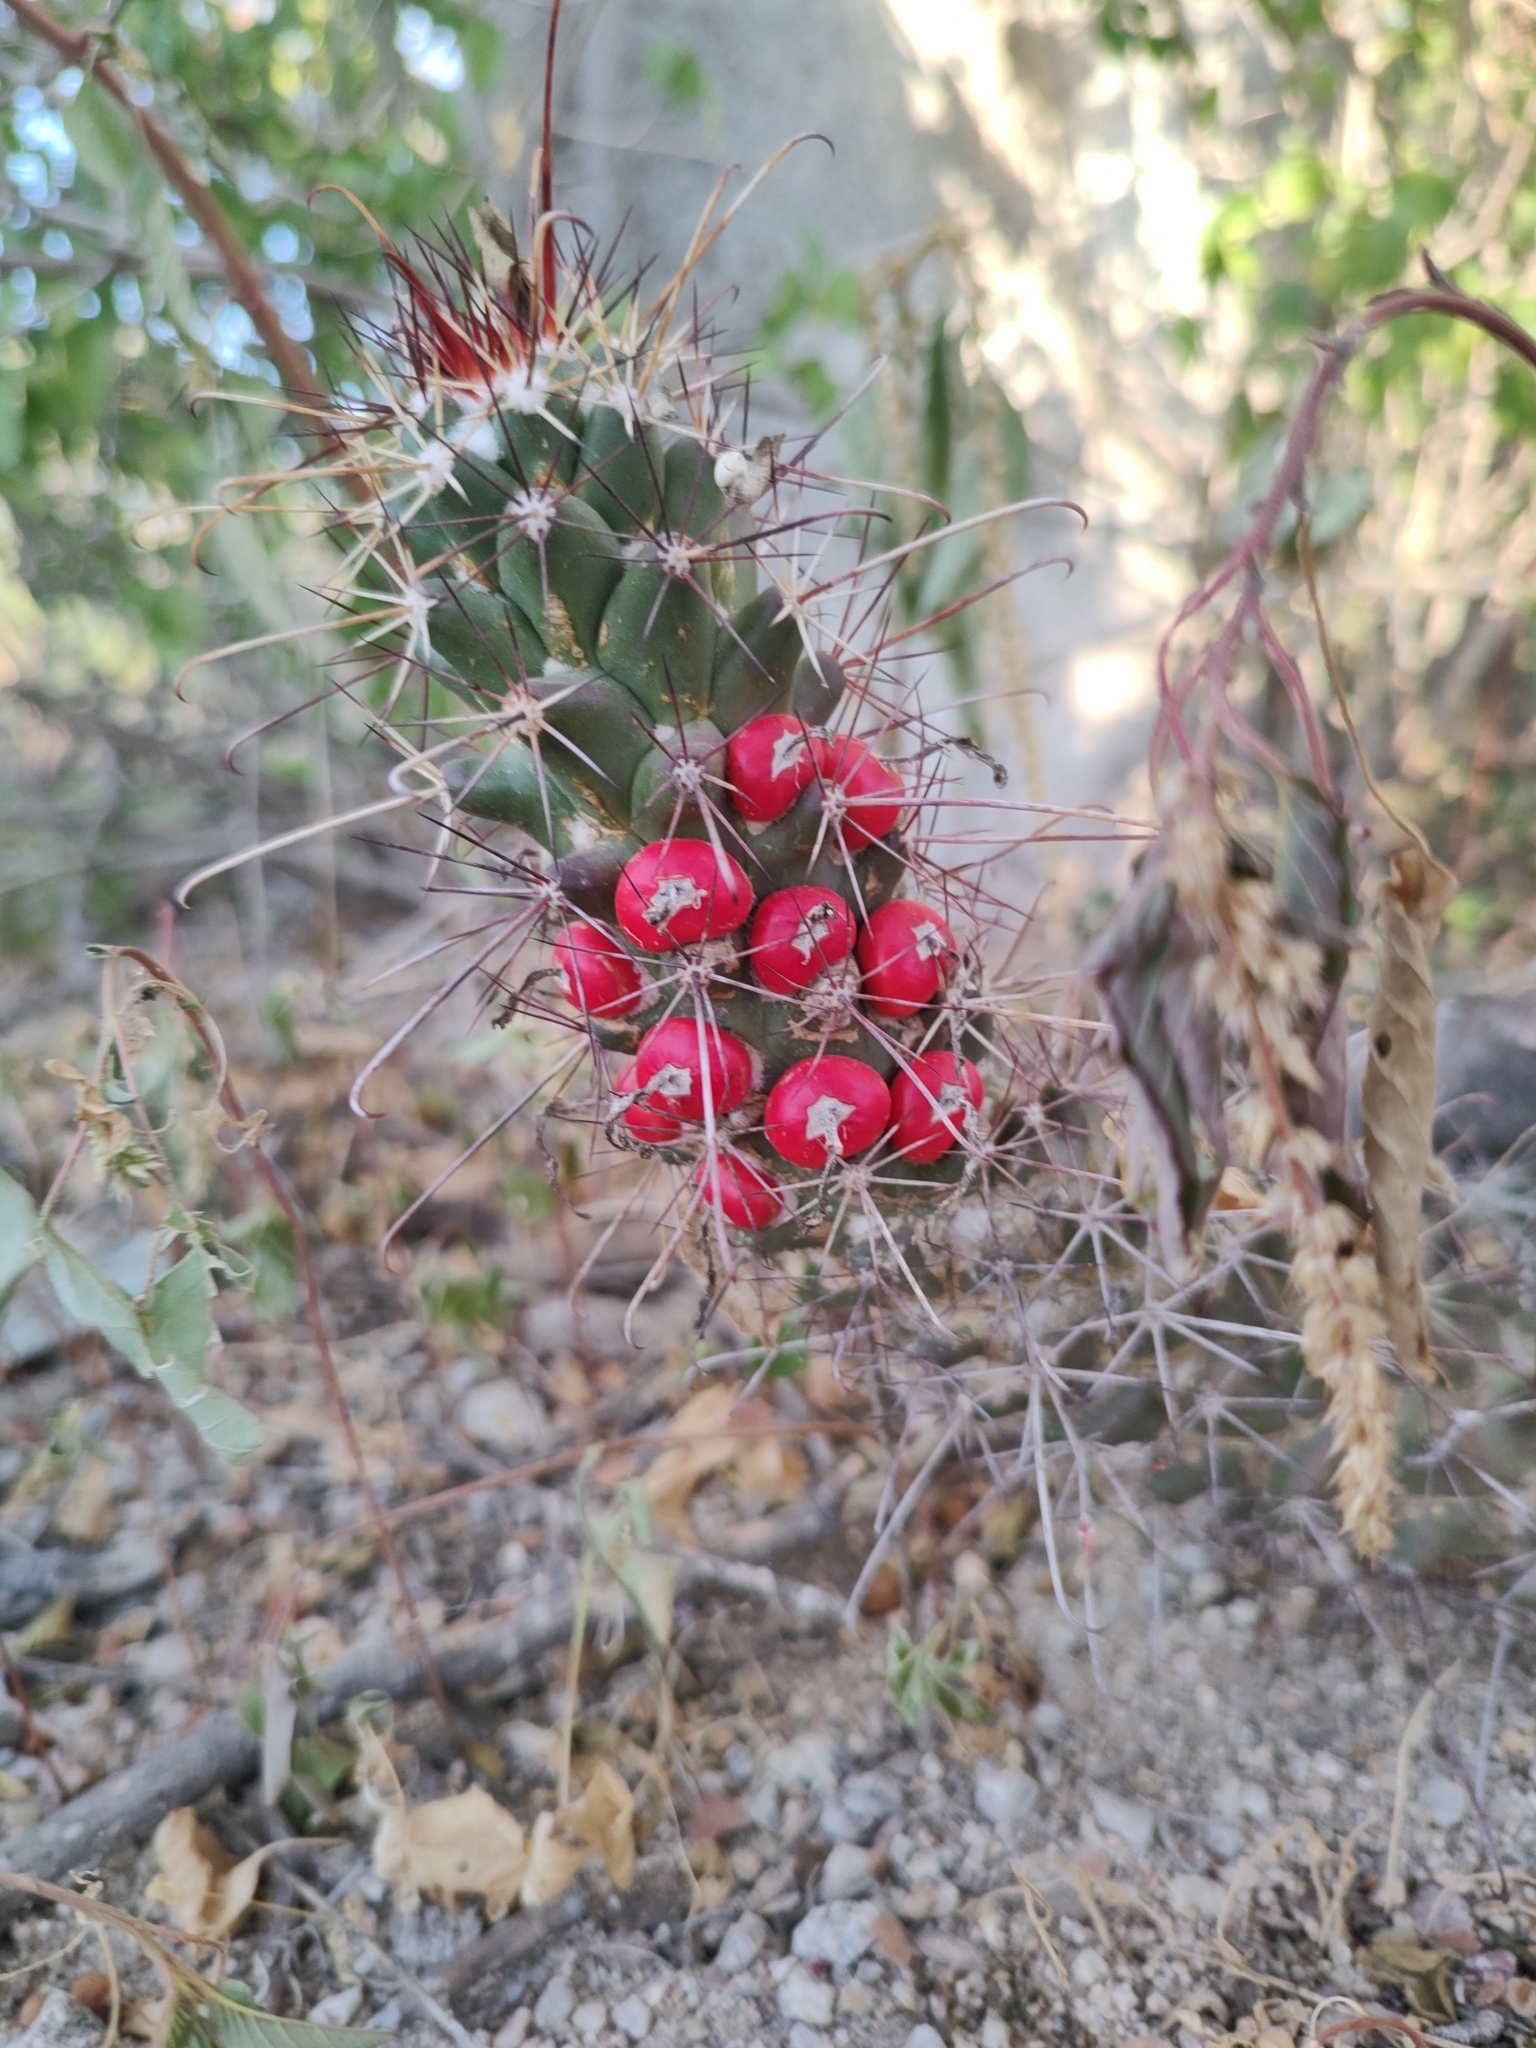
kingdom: Plantae
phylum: Tracheophyta
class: Magnoliopsida
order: Caryophyllales
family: Cactaceae
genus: Cochemiea
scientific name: Cochemiea poselgeri
